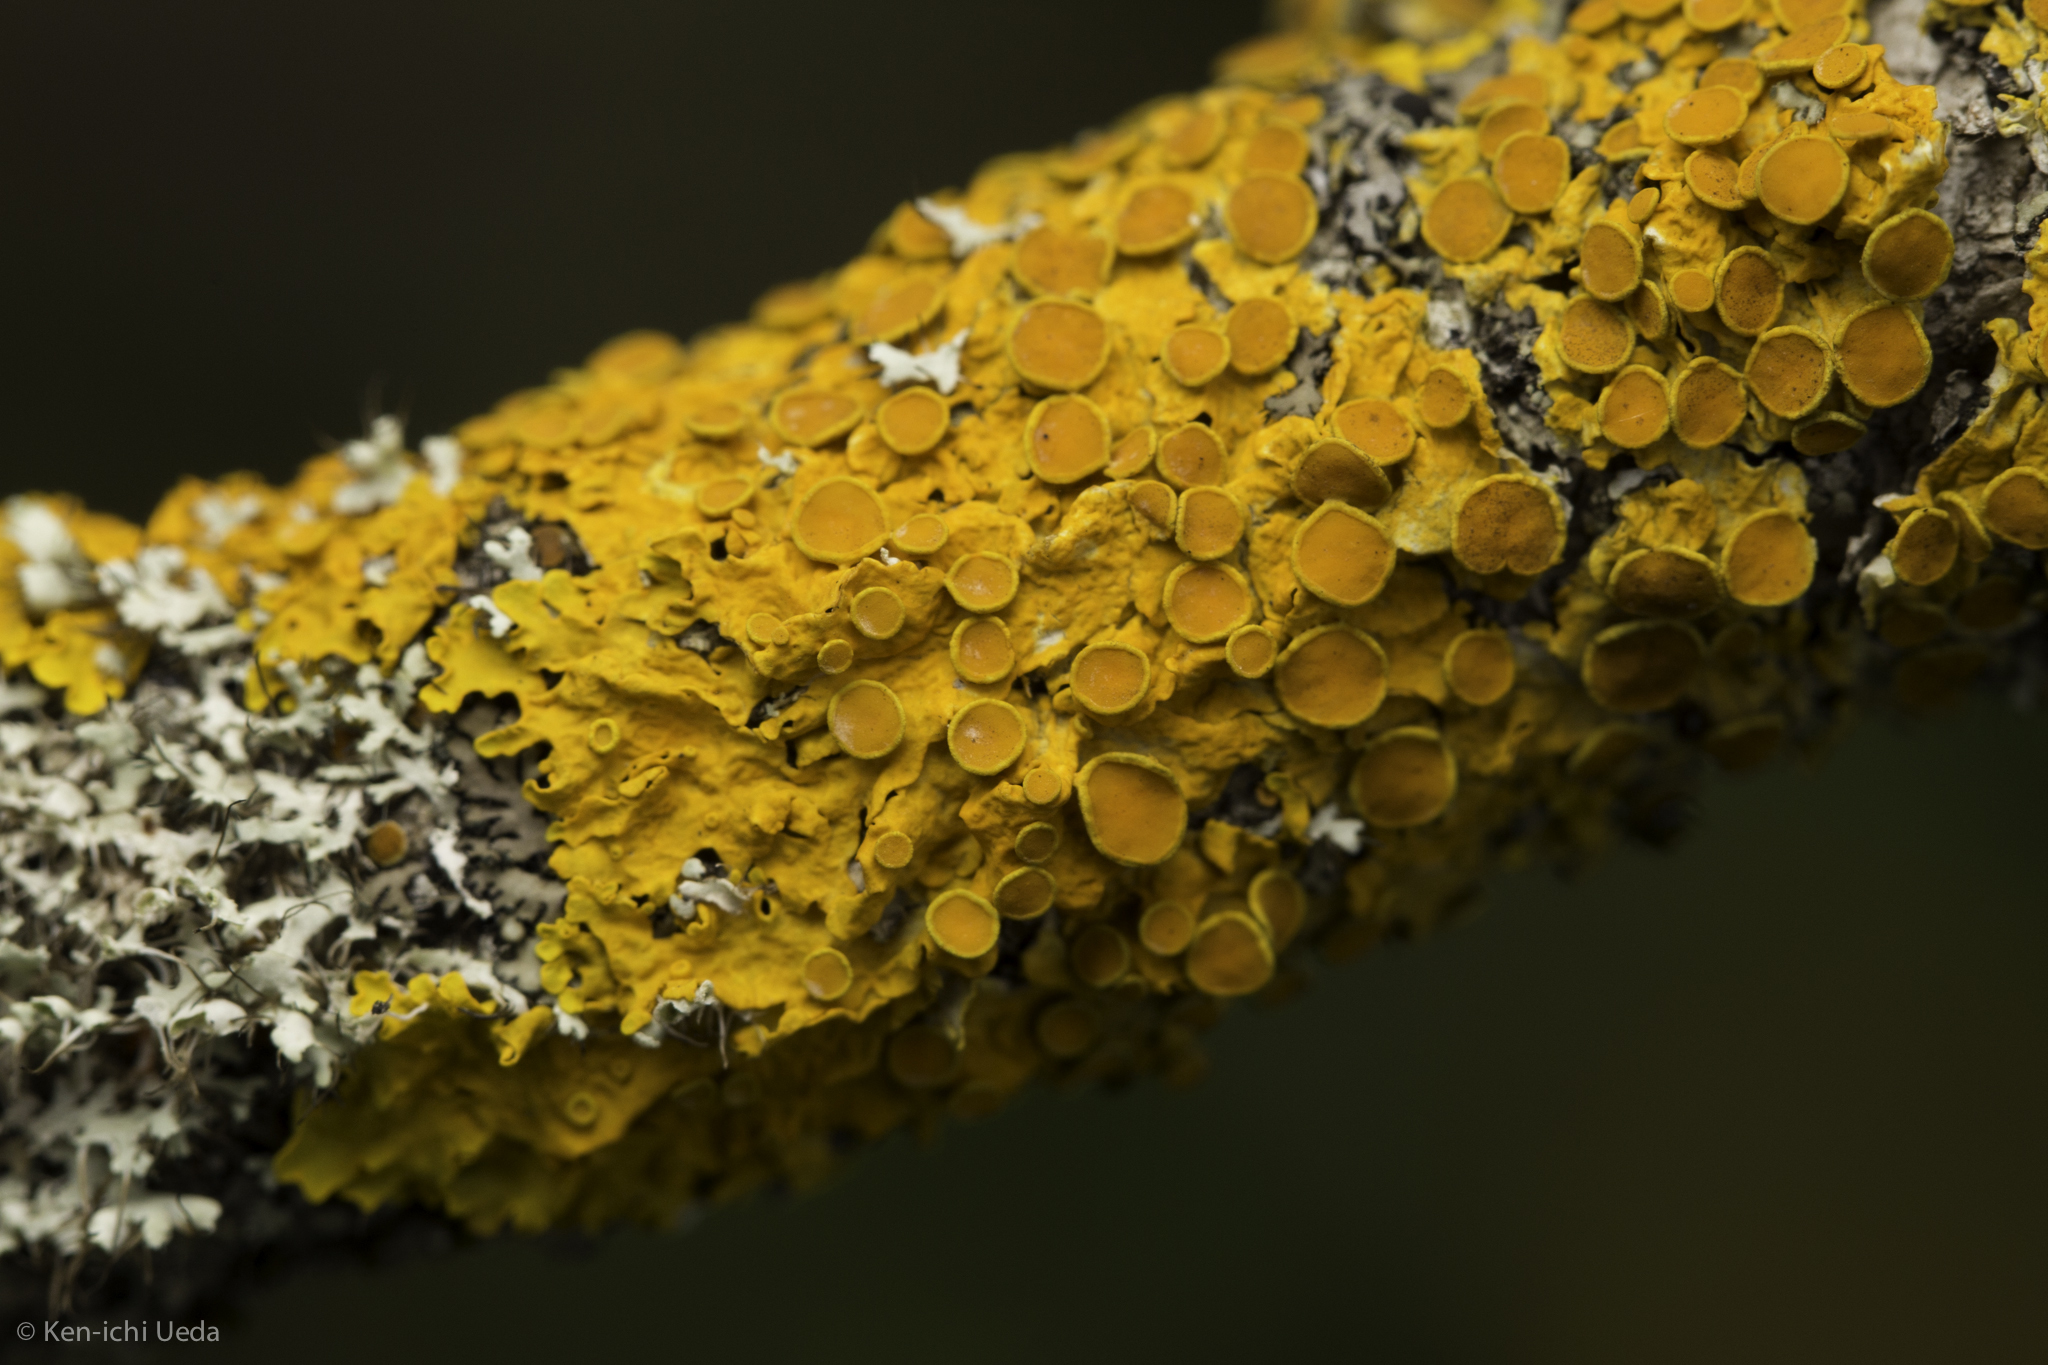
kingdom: Fungi
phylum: Ascomycota
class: Lecanoromycetes
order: Teloschistales
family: Teloschistaceae
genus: Xanthoria
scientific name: Xanthoria parietina
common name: Common orange lichen
